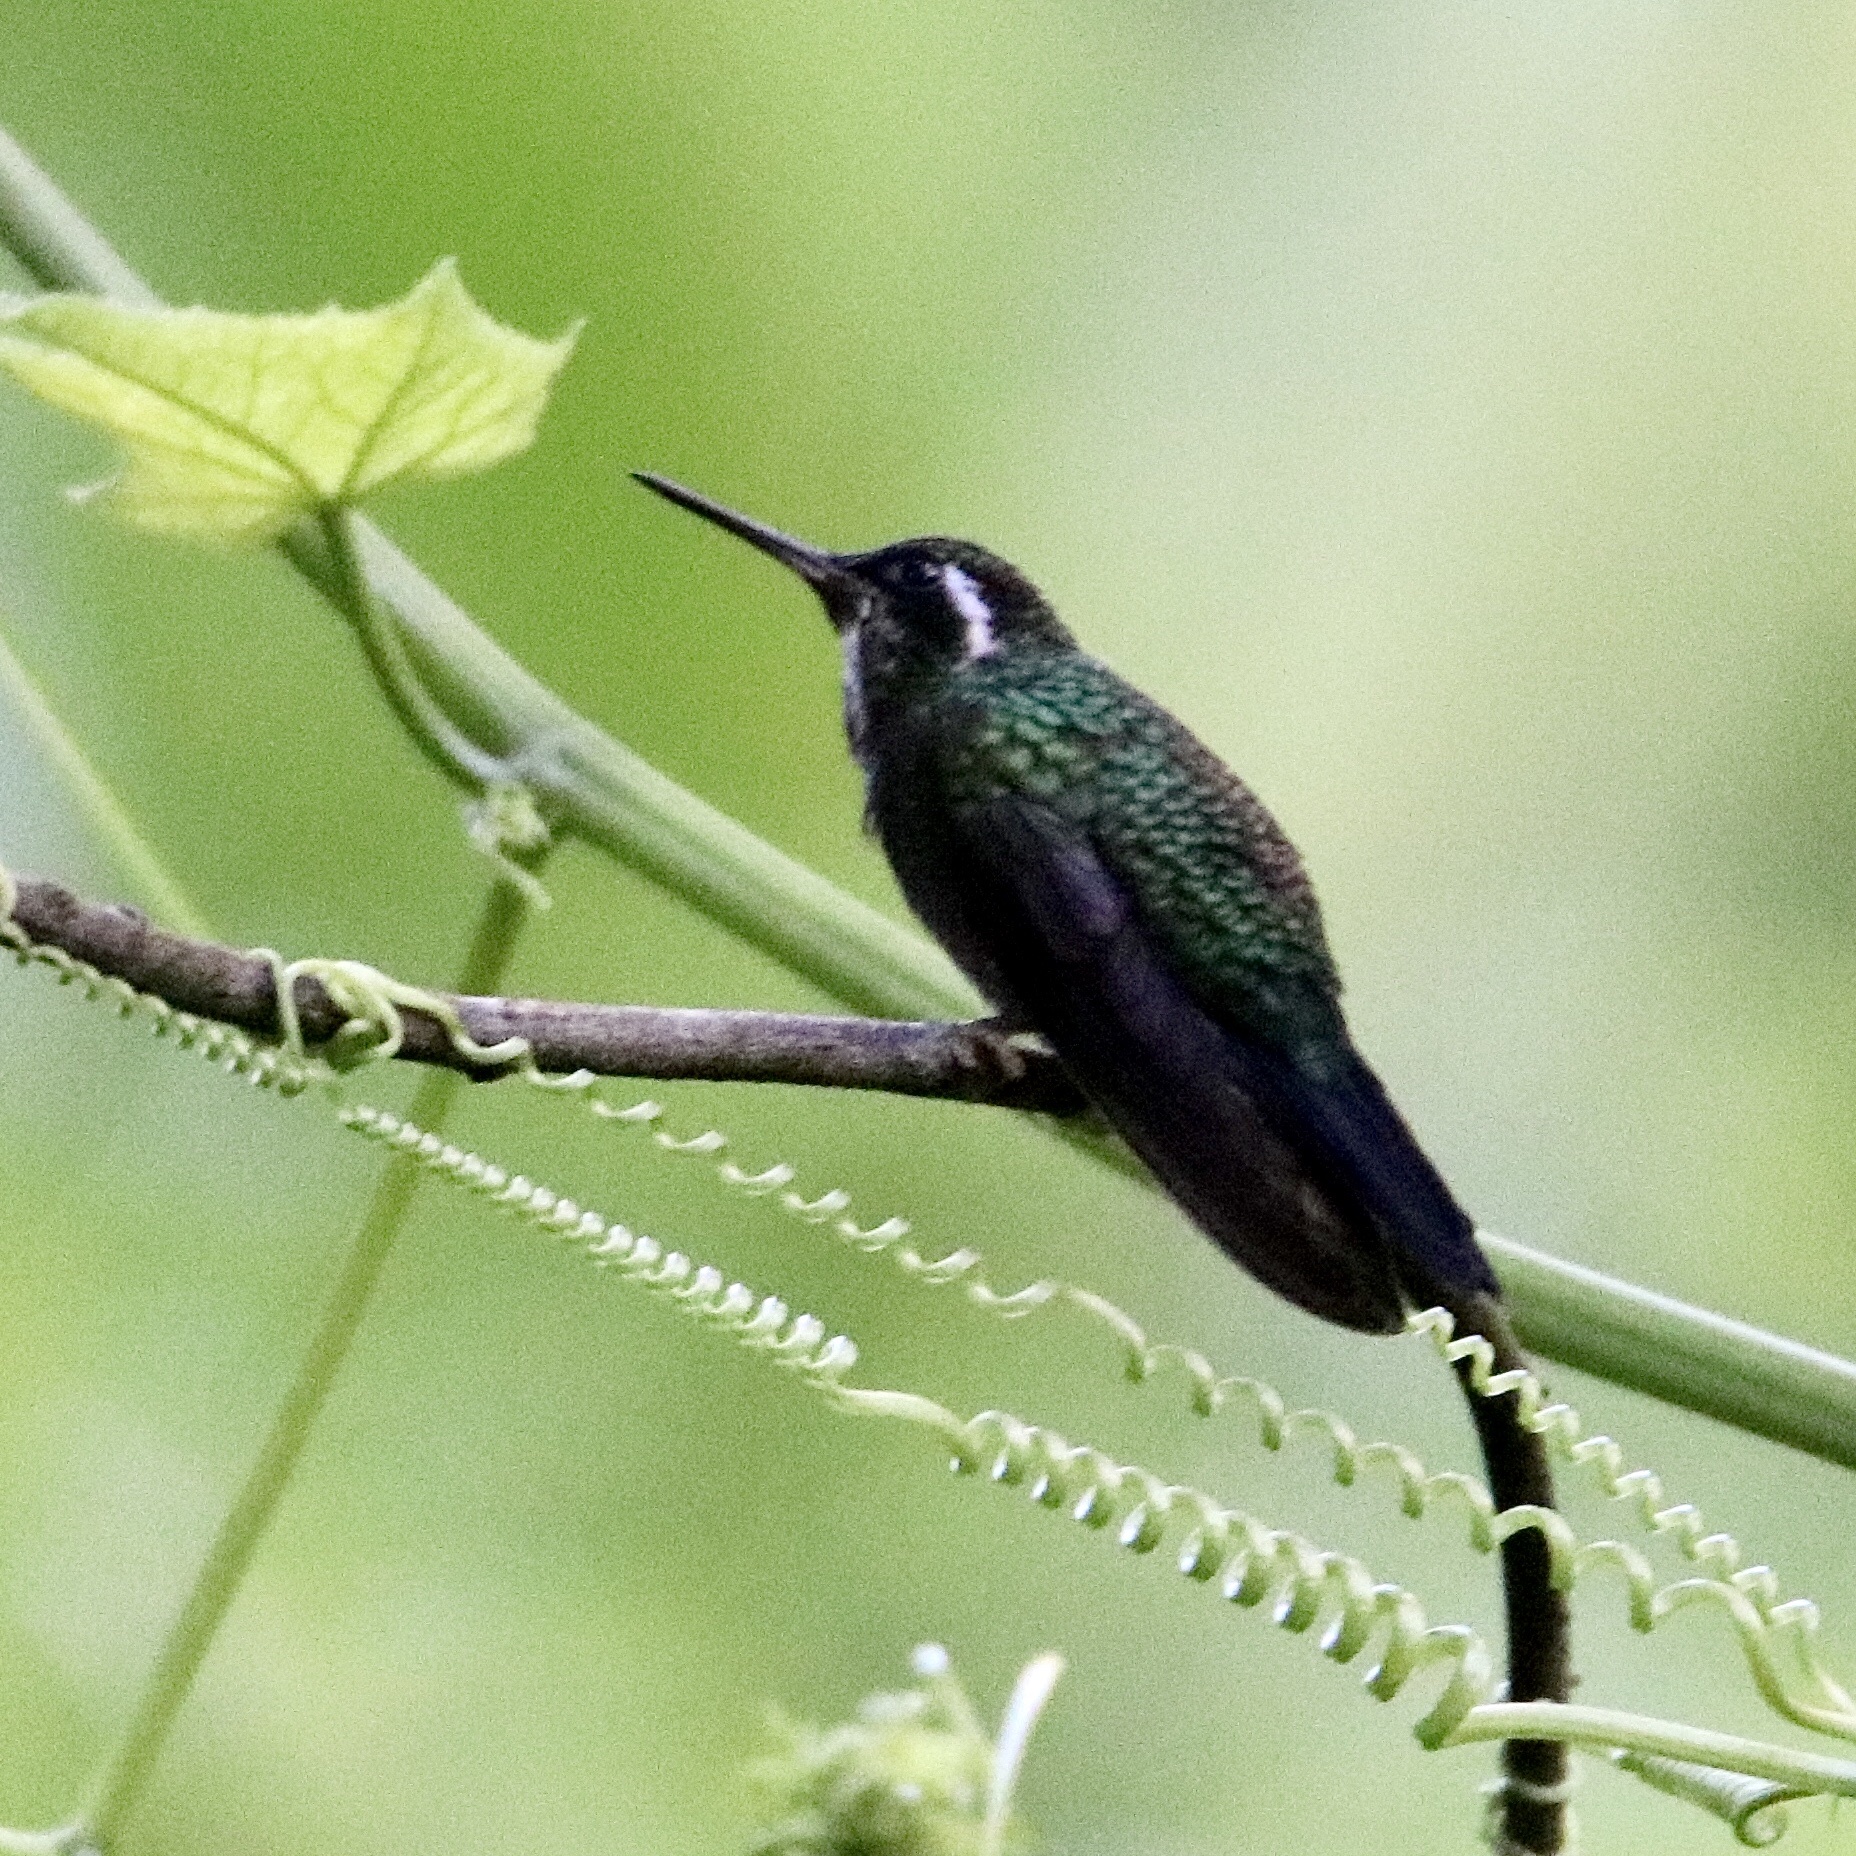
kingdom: Animalia
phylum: Chordata
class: Aves
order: Apodiformes
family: Trochilidae
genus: Lampornis
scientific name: Lampornis calolaemus
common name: Purple-throated mountain-gem
